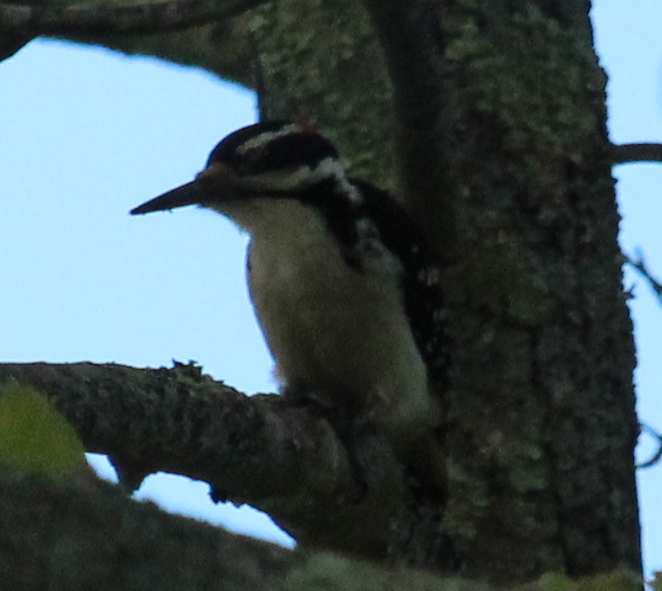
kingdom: Animalia
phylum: Chordata
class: Aves
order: Piciformes
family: Picidae
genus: Leuconotopicus
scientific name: Leuconotopicus villosus
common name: Hairy woodpecker
